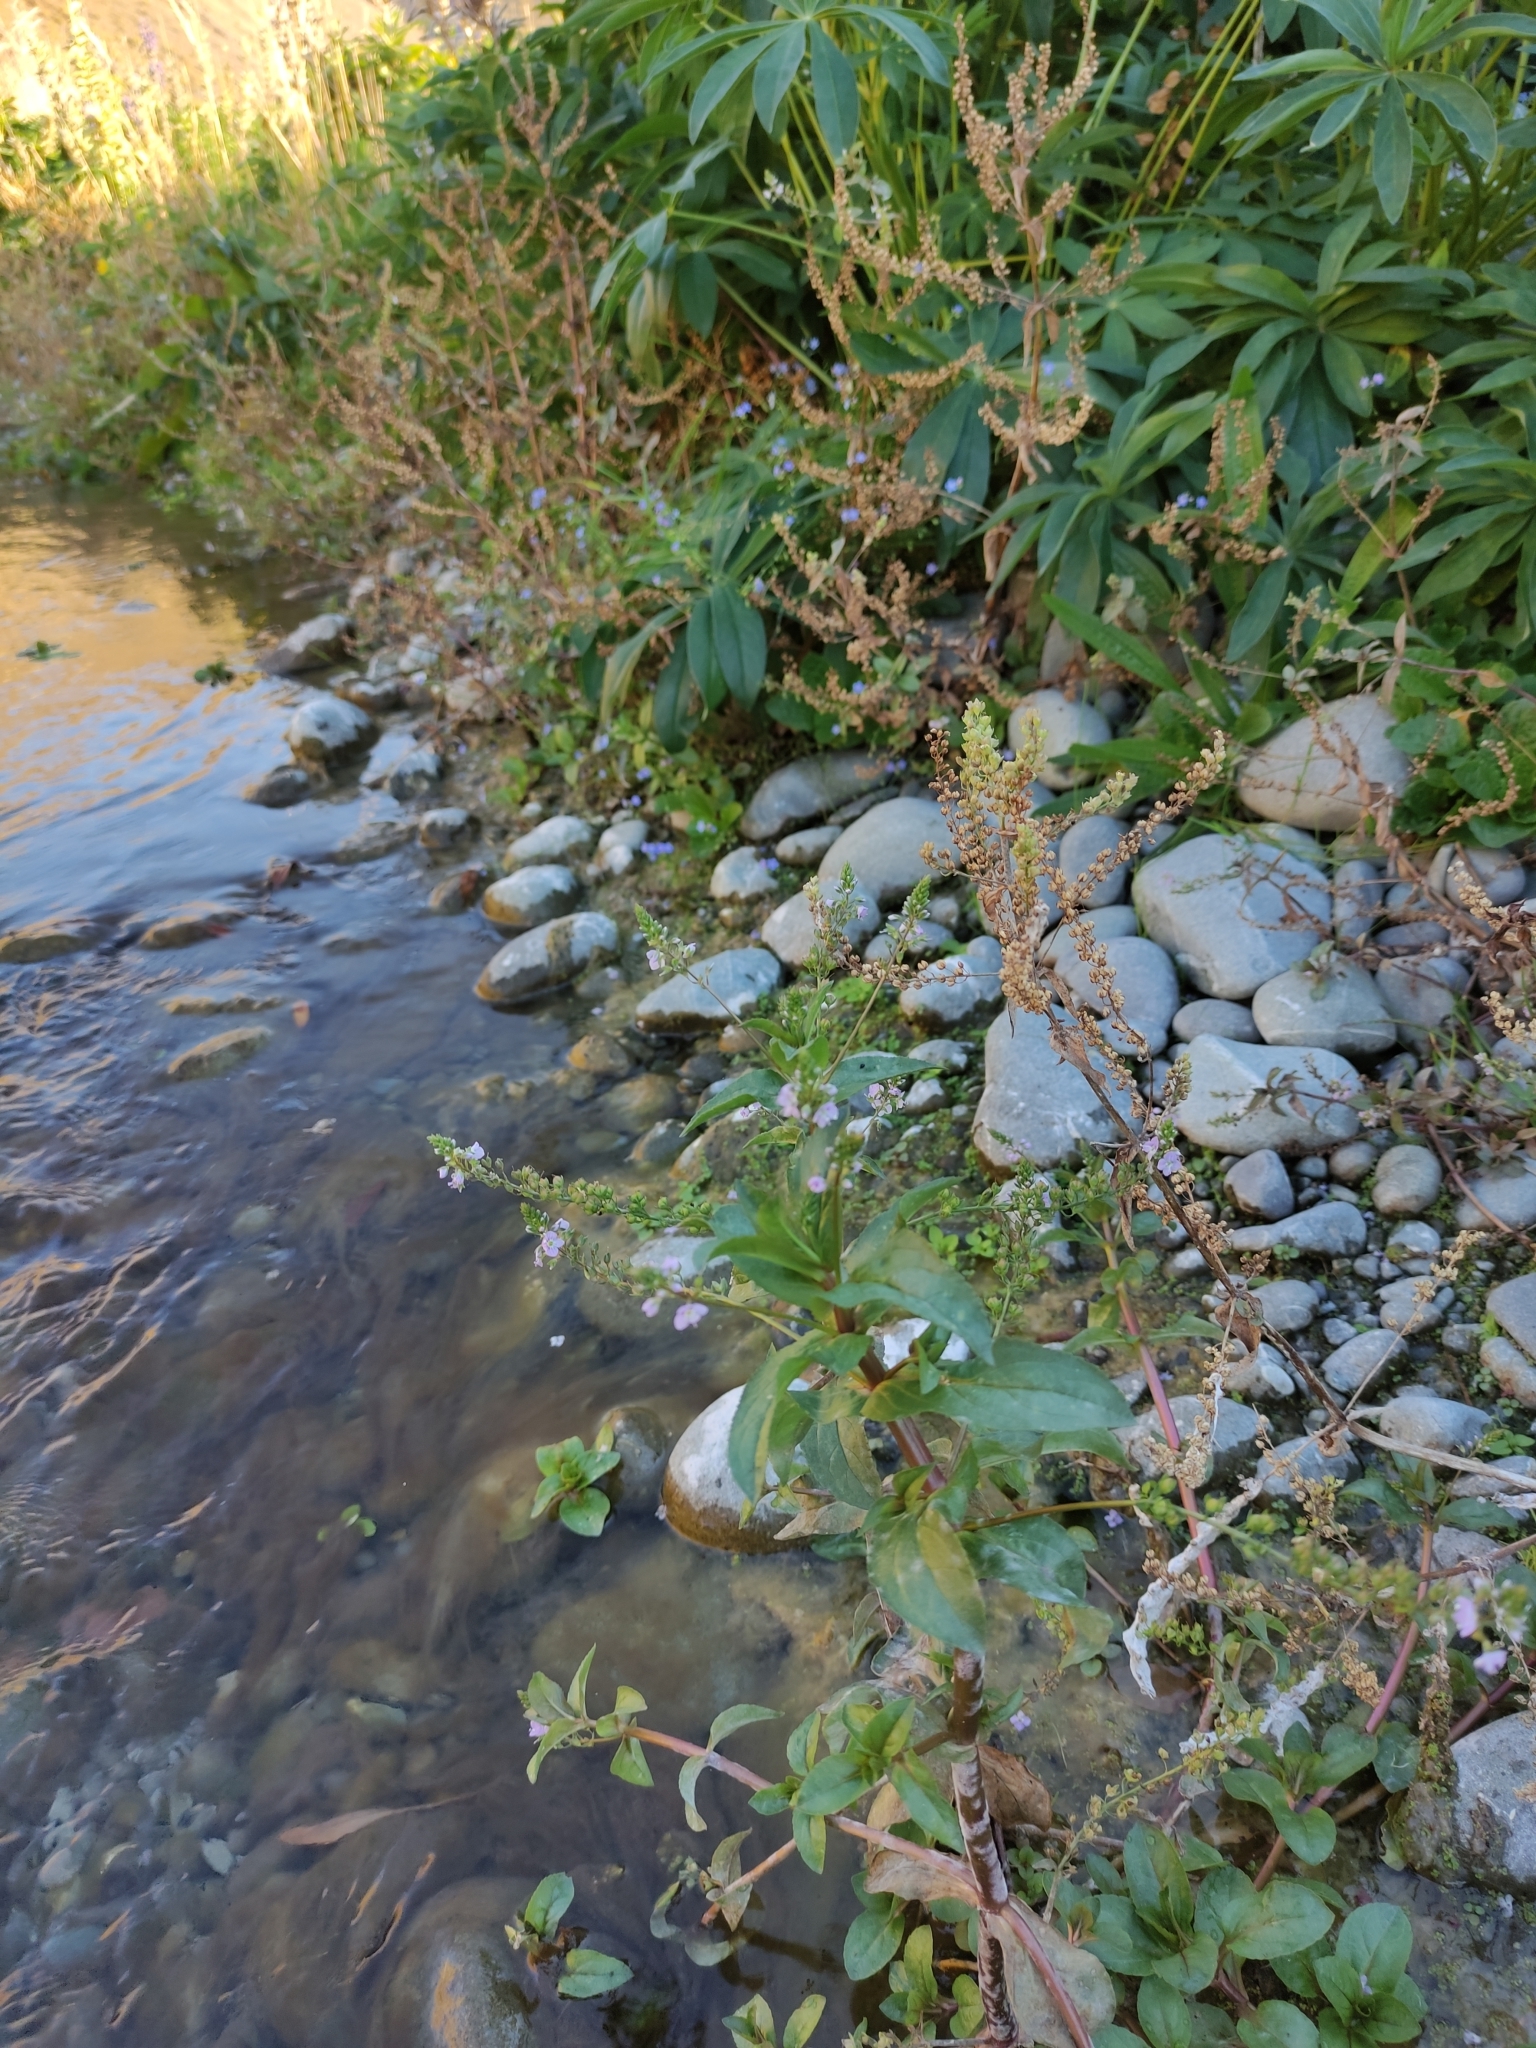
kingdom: Plantae
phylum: Tracheophyta
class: Magnoliopsida
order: Lamiales
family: Plantaginaceae
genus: Veronica
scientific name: Veronica anagallis-aquatica
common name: Water speedwell
